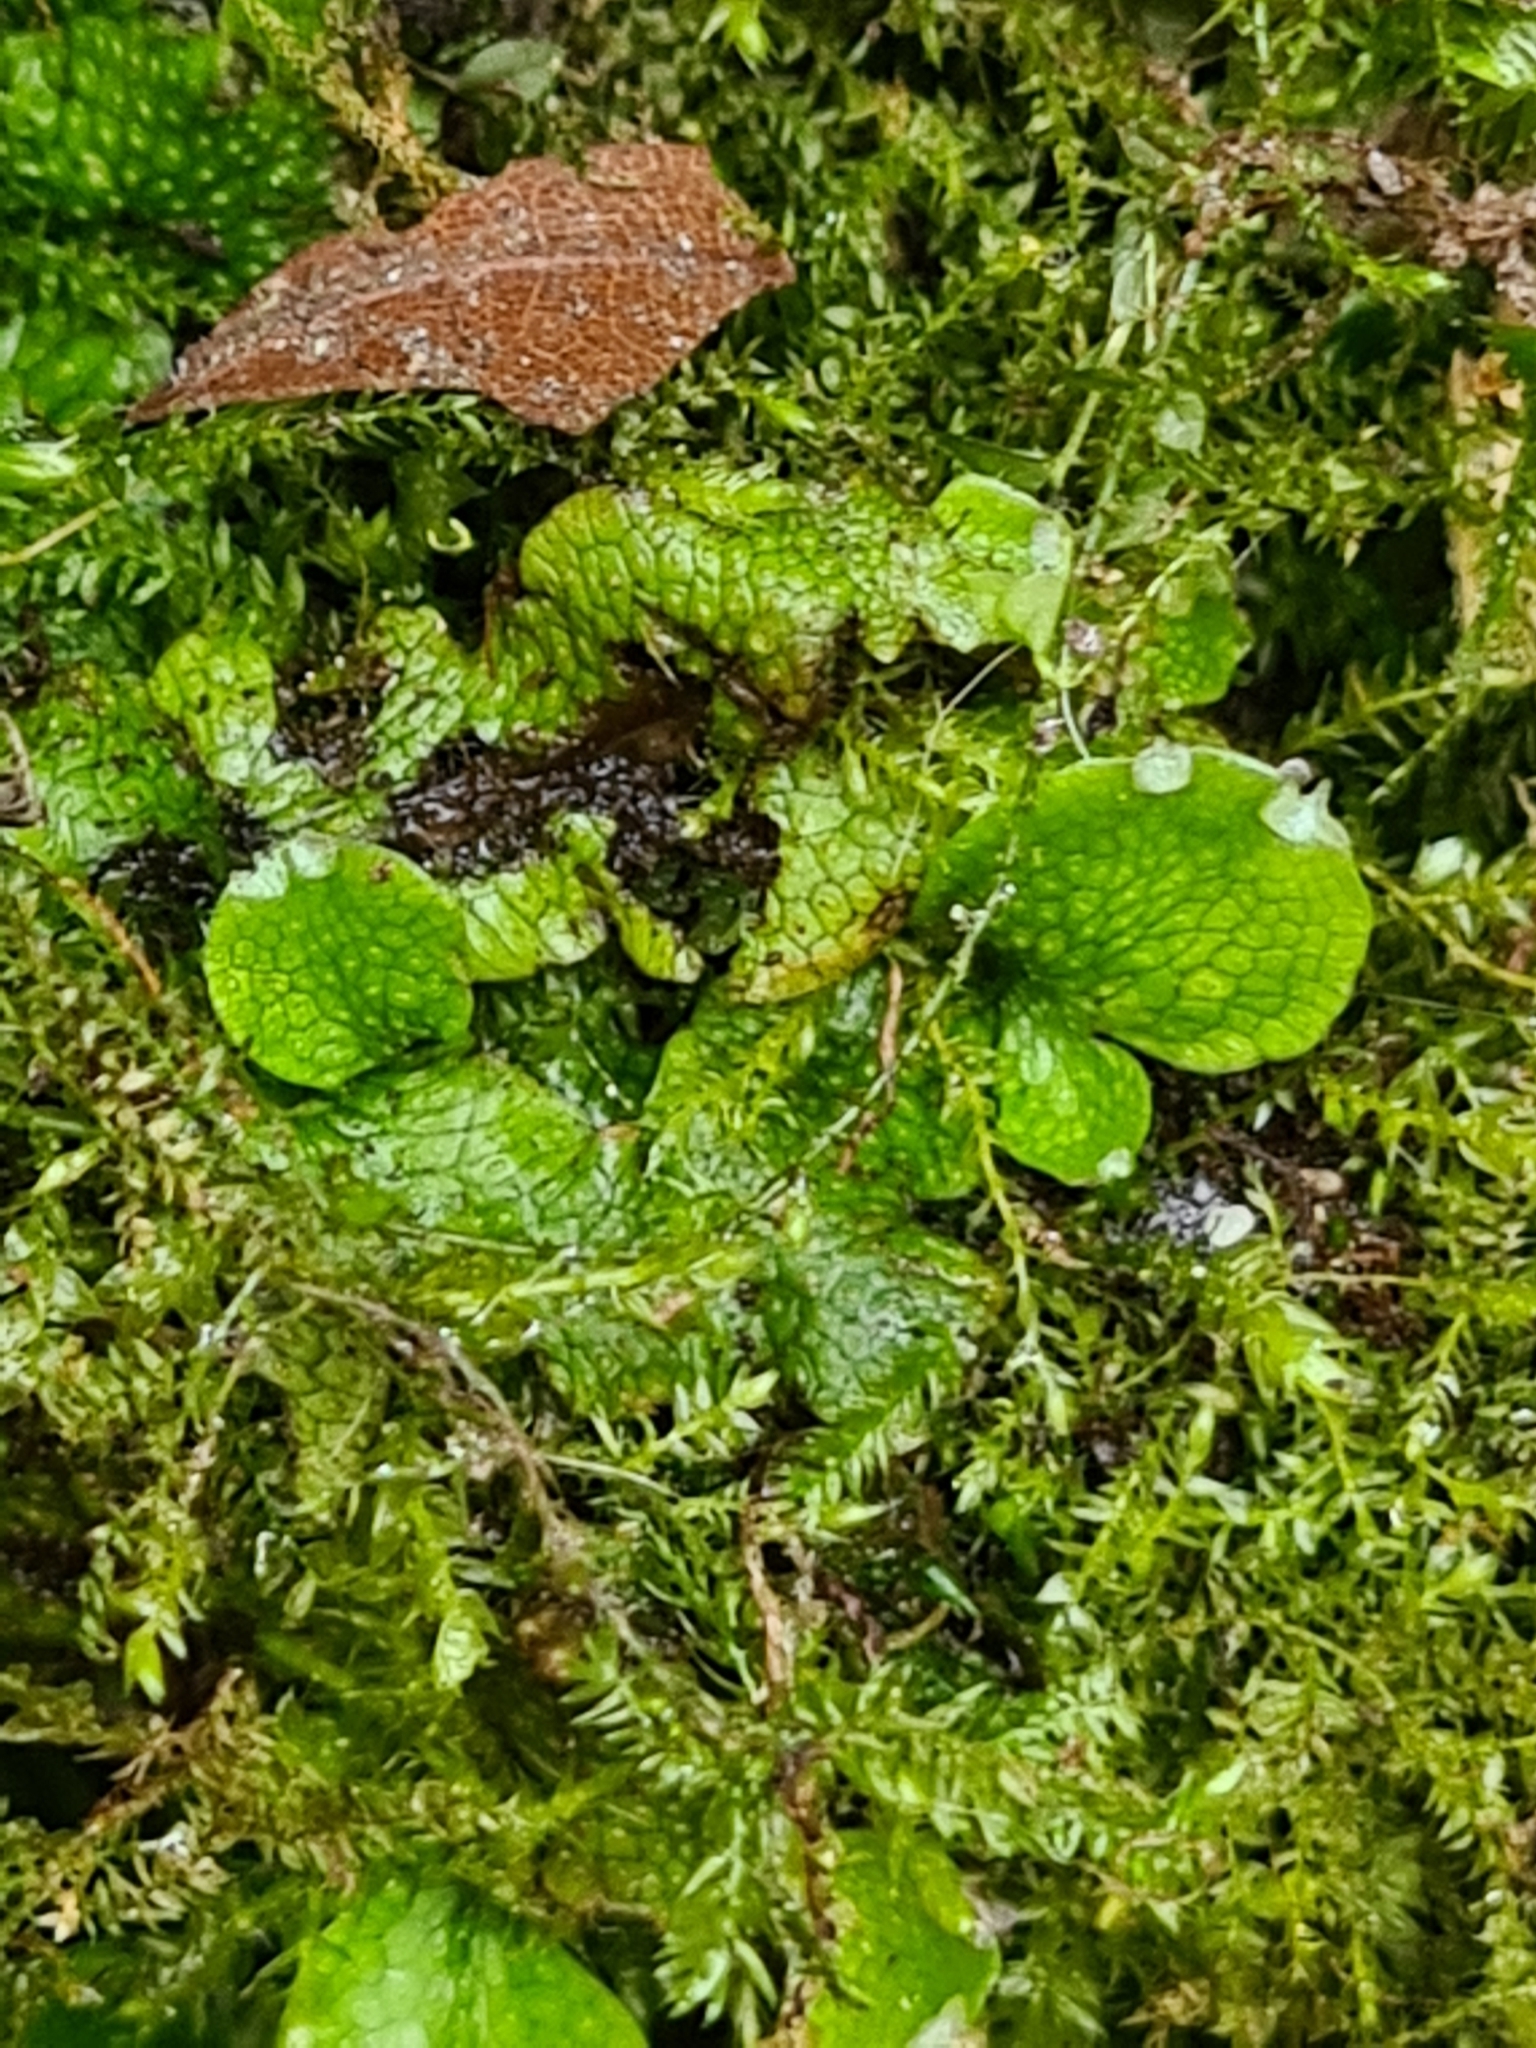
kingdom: Plantae
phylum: Marchantiophyta
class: Marchantiopsida
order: Marchantiales
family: Conocephalaceae
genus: Conocephalum
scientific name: Conocephalum salebrosum
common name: Cat-tongue liverwort
